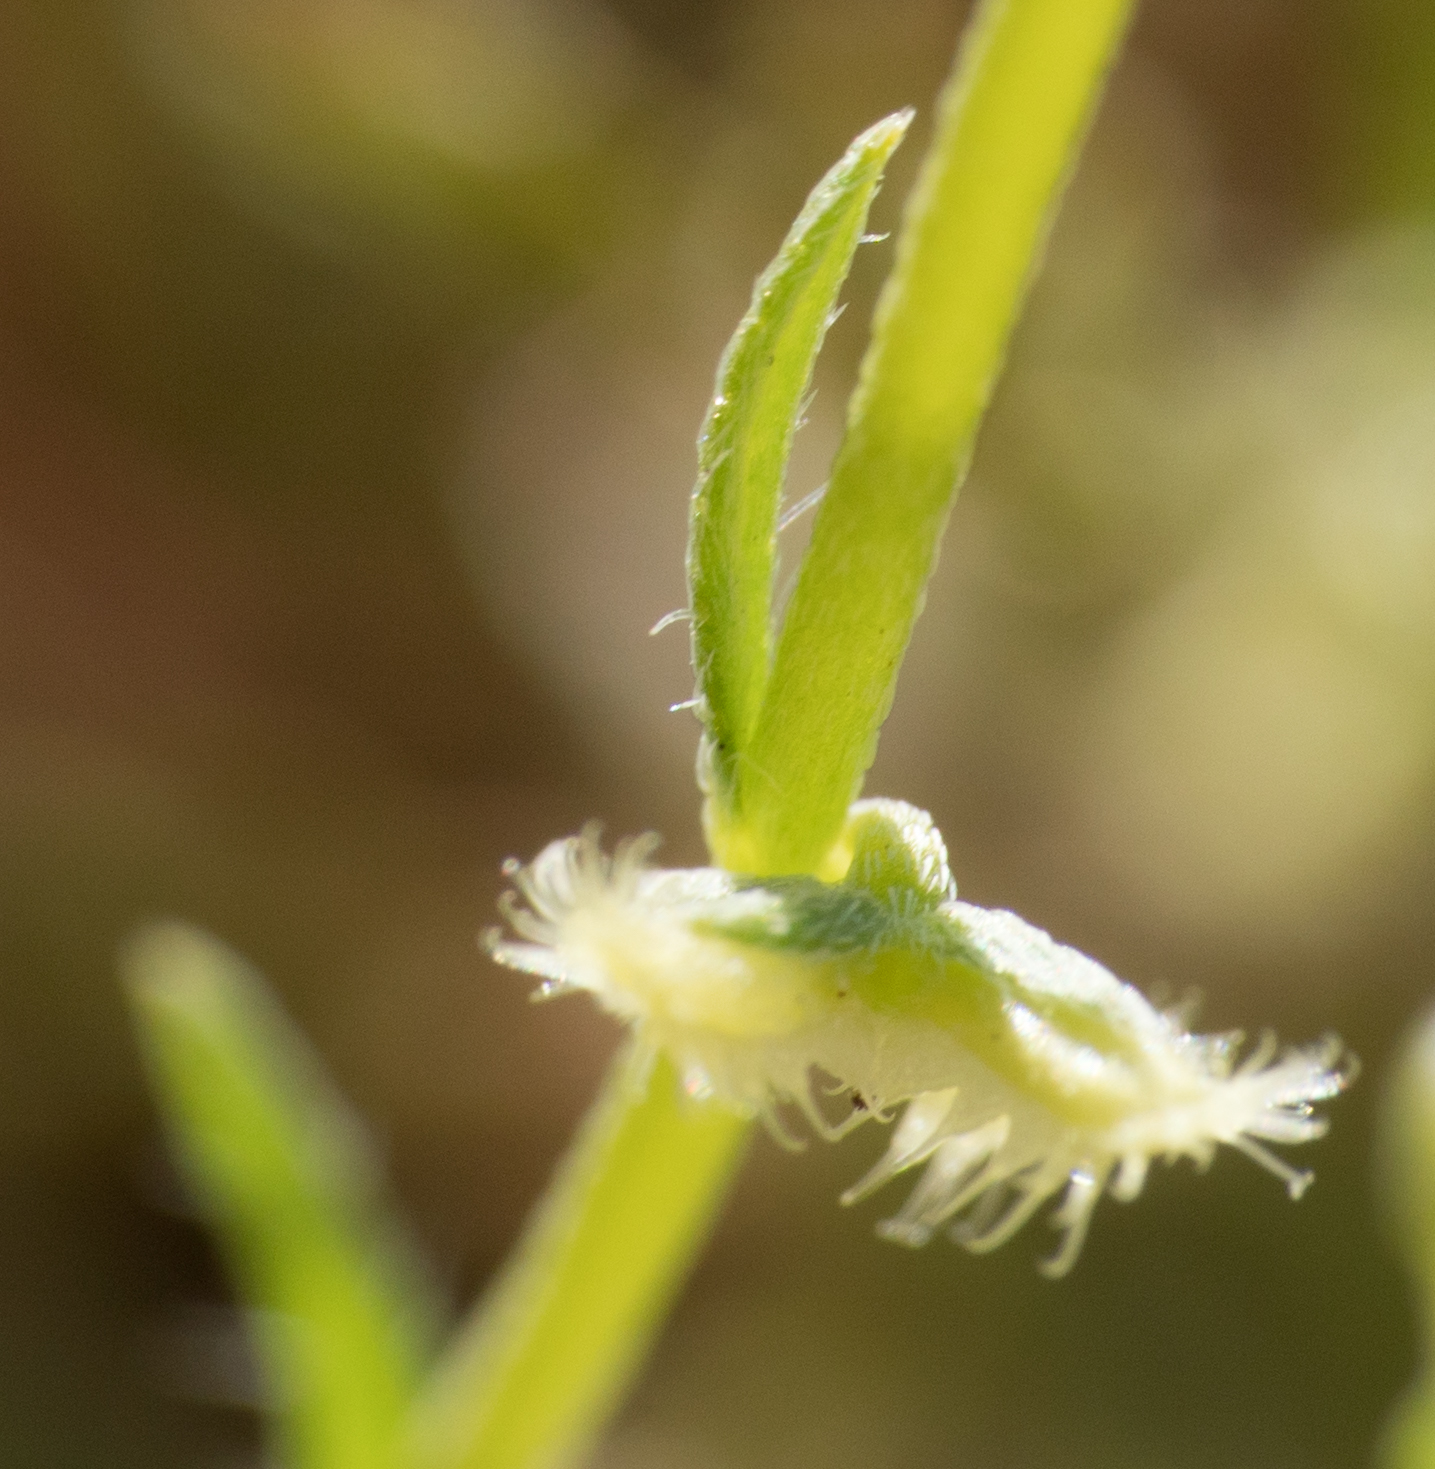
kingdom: Plantae
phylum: Tracheophyta
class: Magnoliopsida
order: Boraginales
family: Boraginaceae
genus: Pectocarya
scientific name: Pectocarya linearis
